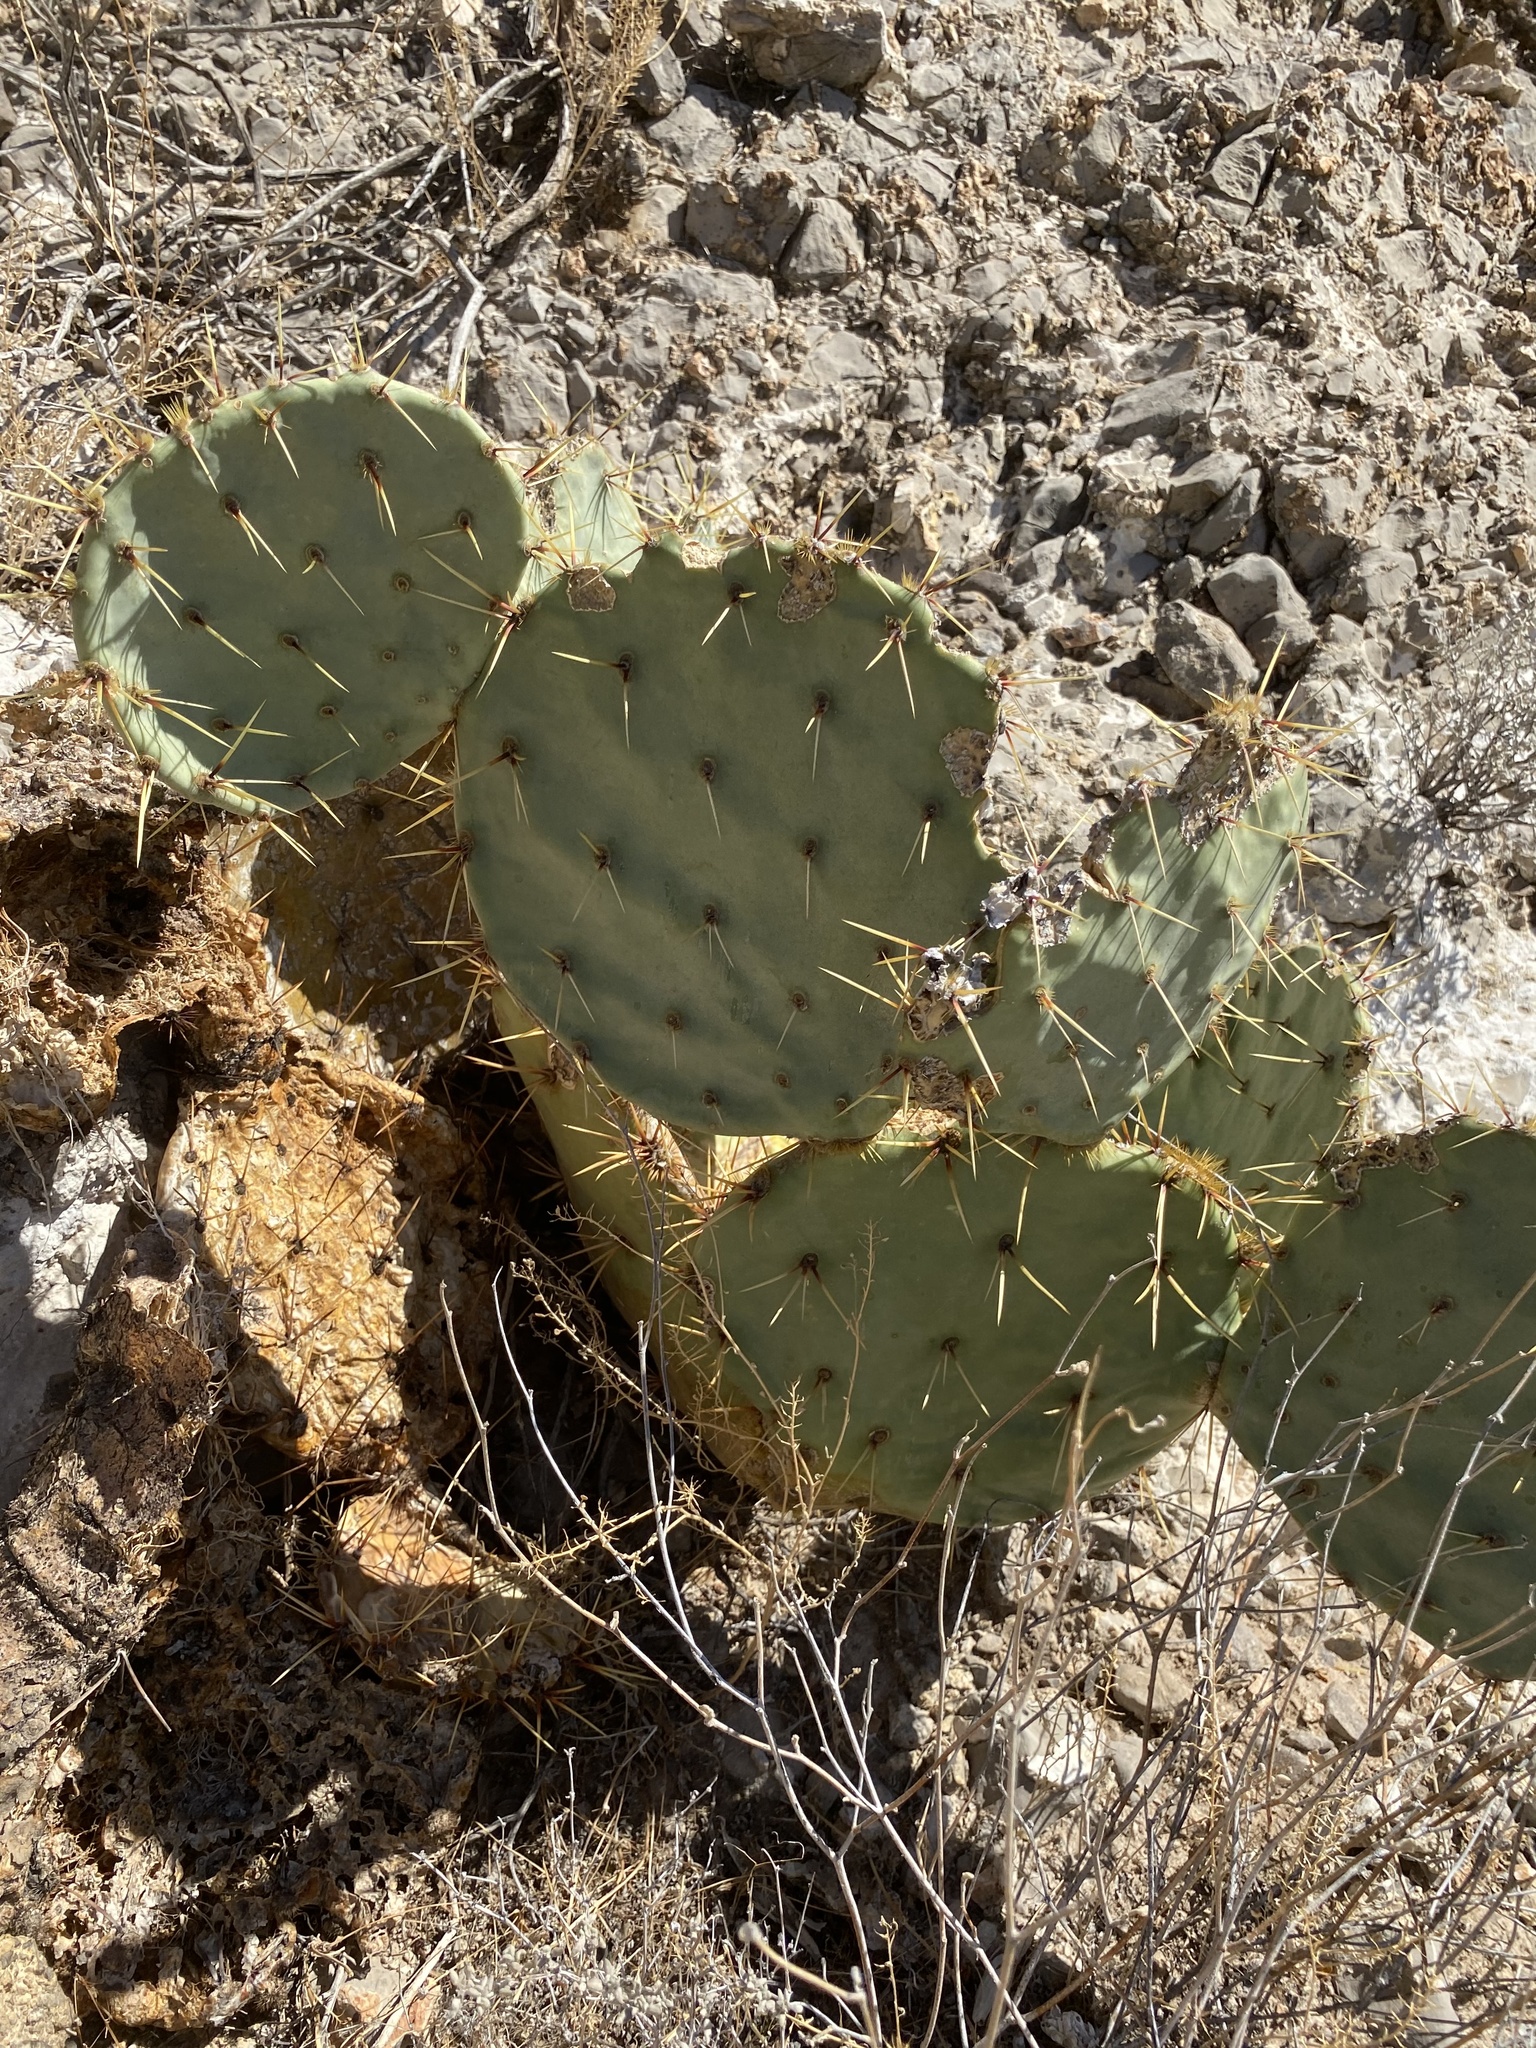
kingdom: Plantae
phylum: Tracheophyta
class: Magnoliopsida
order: Caryophyllales
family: Cactaceae
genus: Opuntia
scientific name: Opuntia orbiculata
